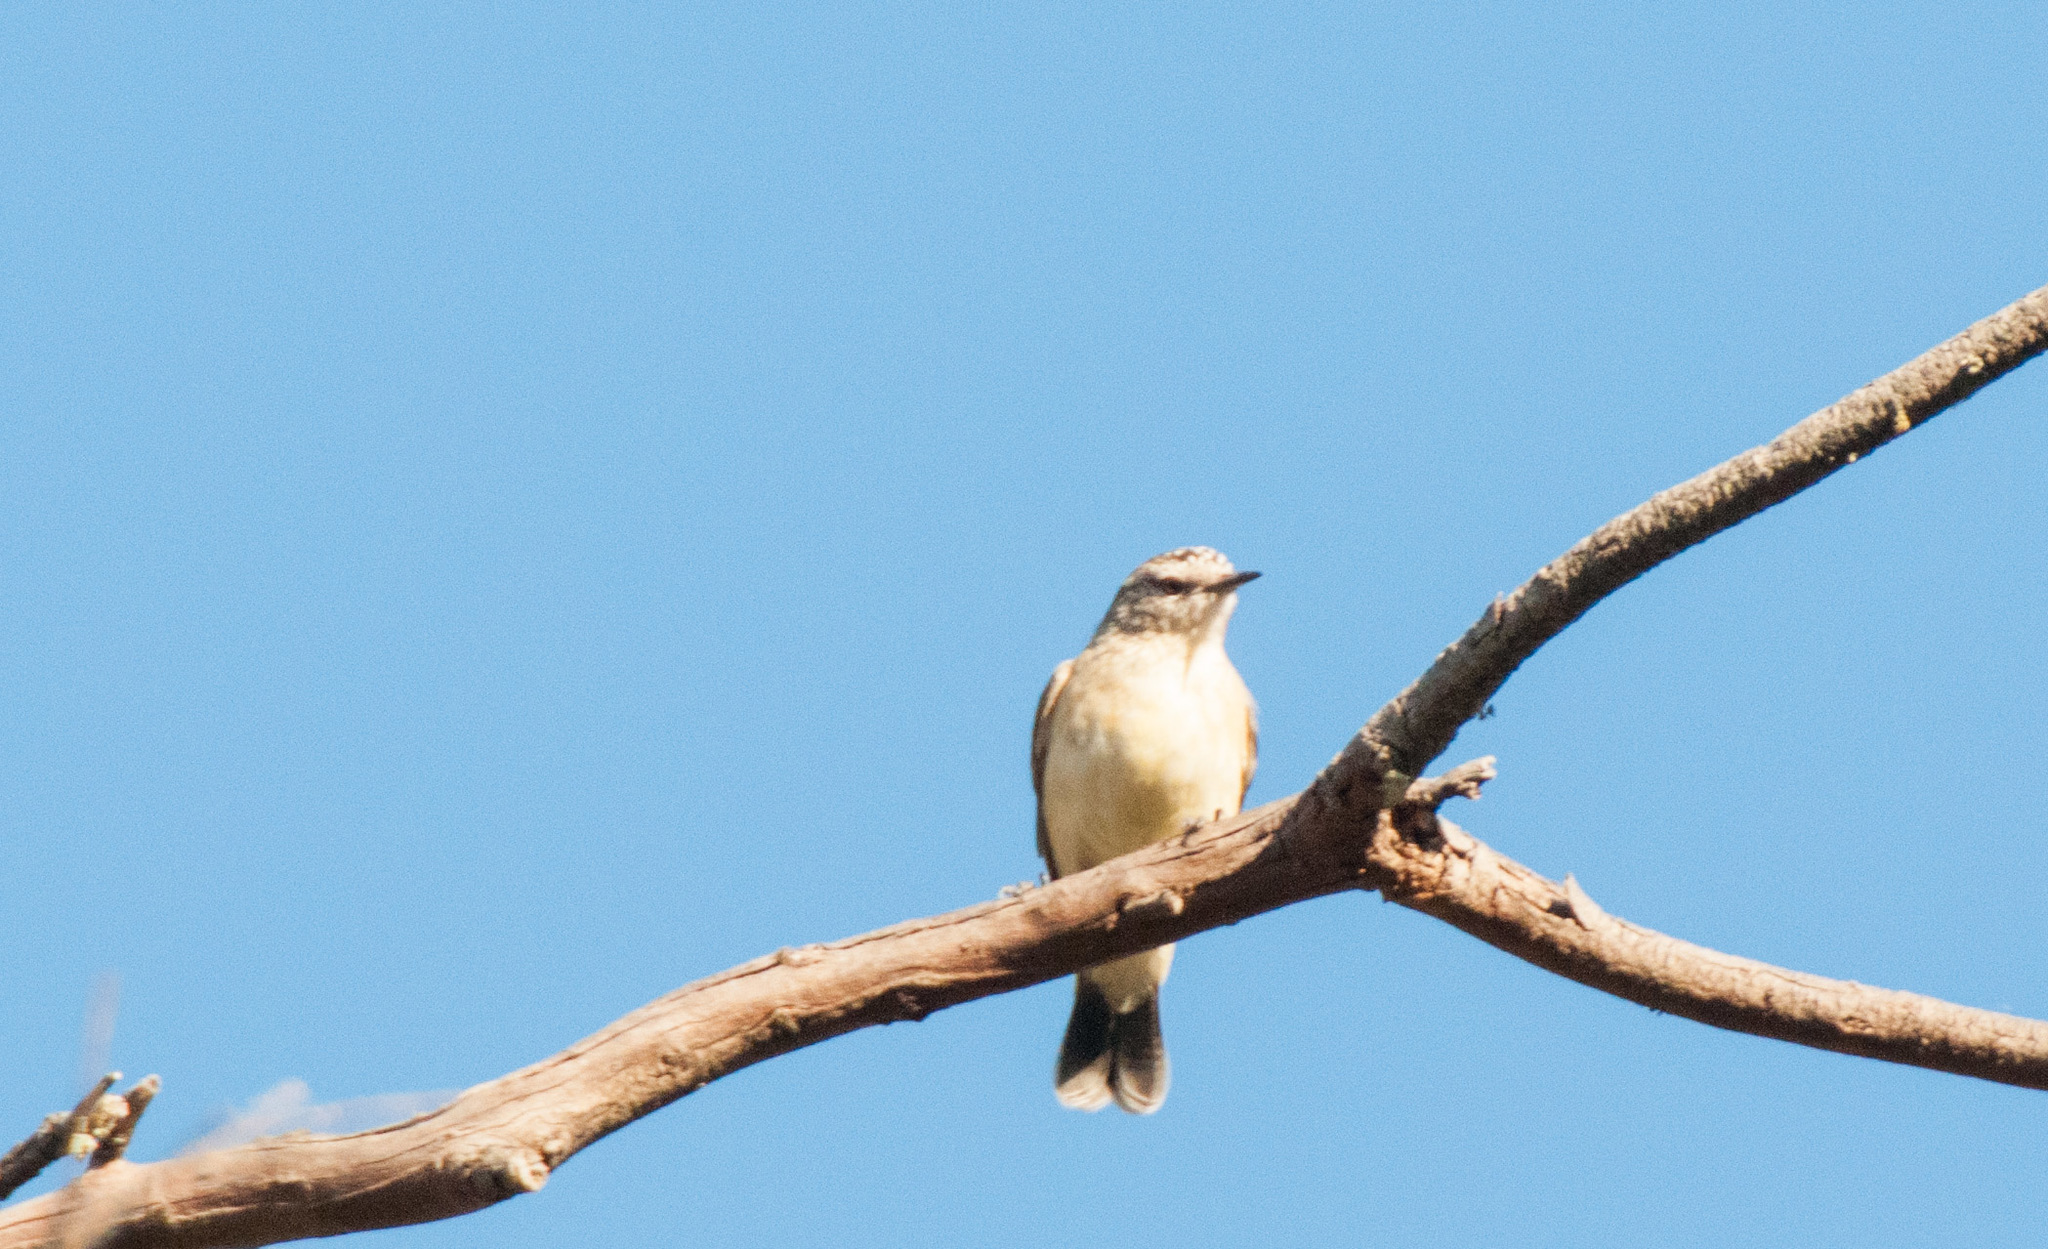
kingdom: Animalia
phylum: Chordata
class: Aves
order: Passeriformes
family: Acanthizidae
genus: Acanthiza
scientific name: Acanthiza chrysorrhoa
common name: Yellow-rumped thornbill
